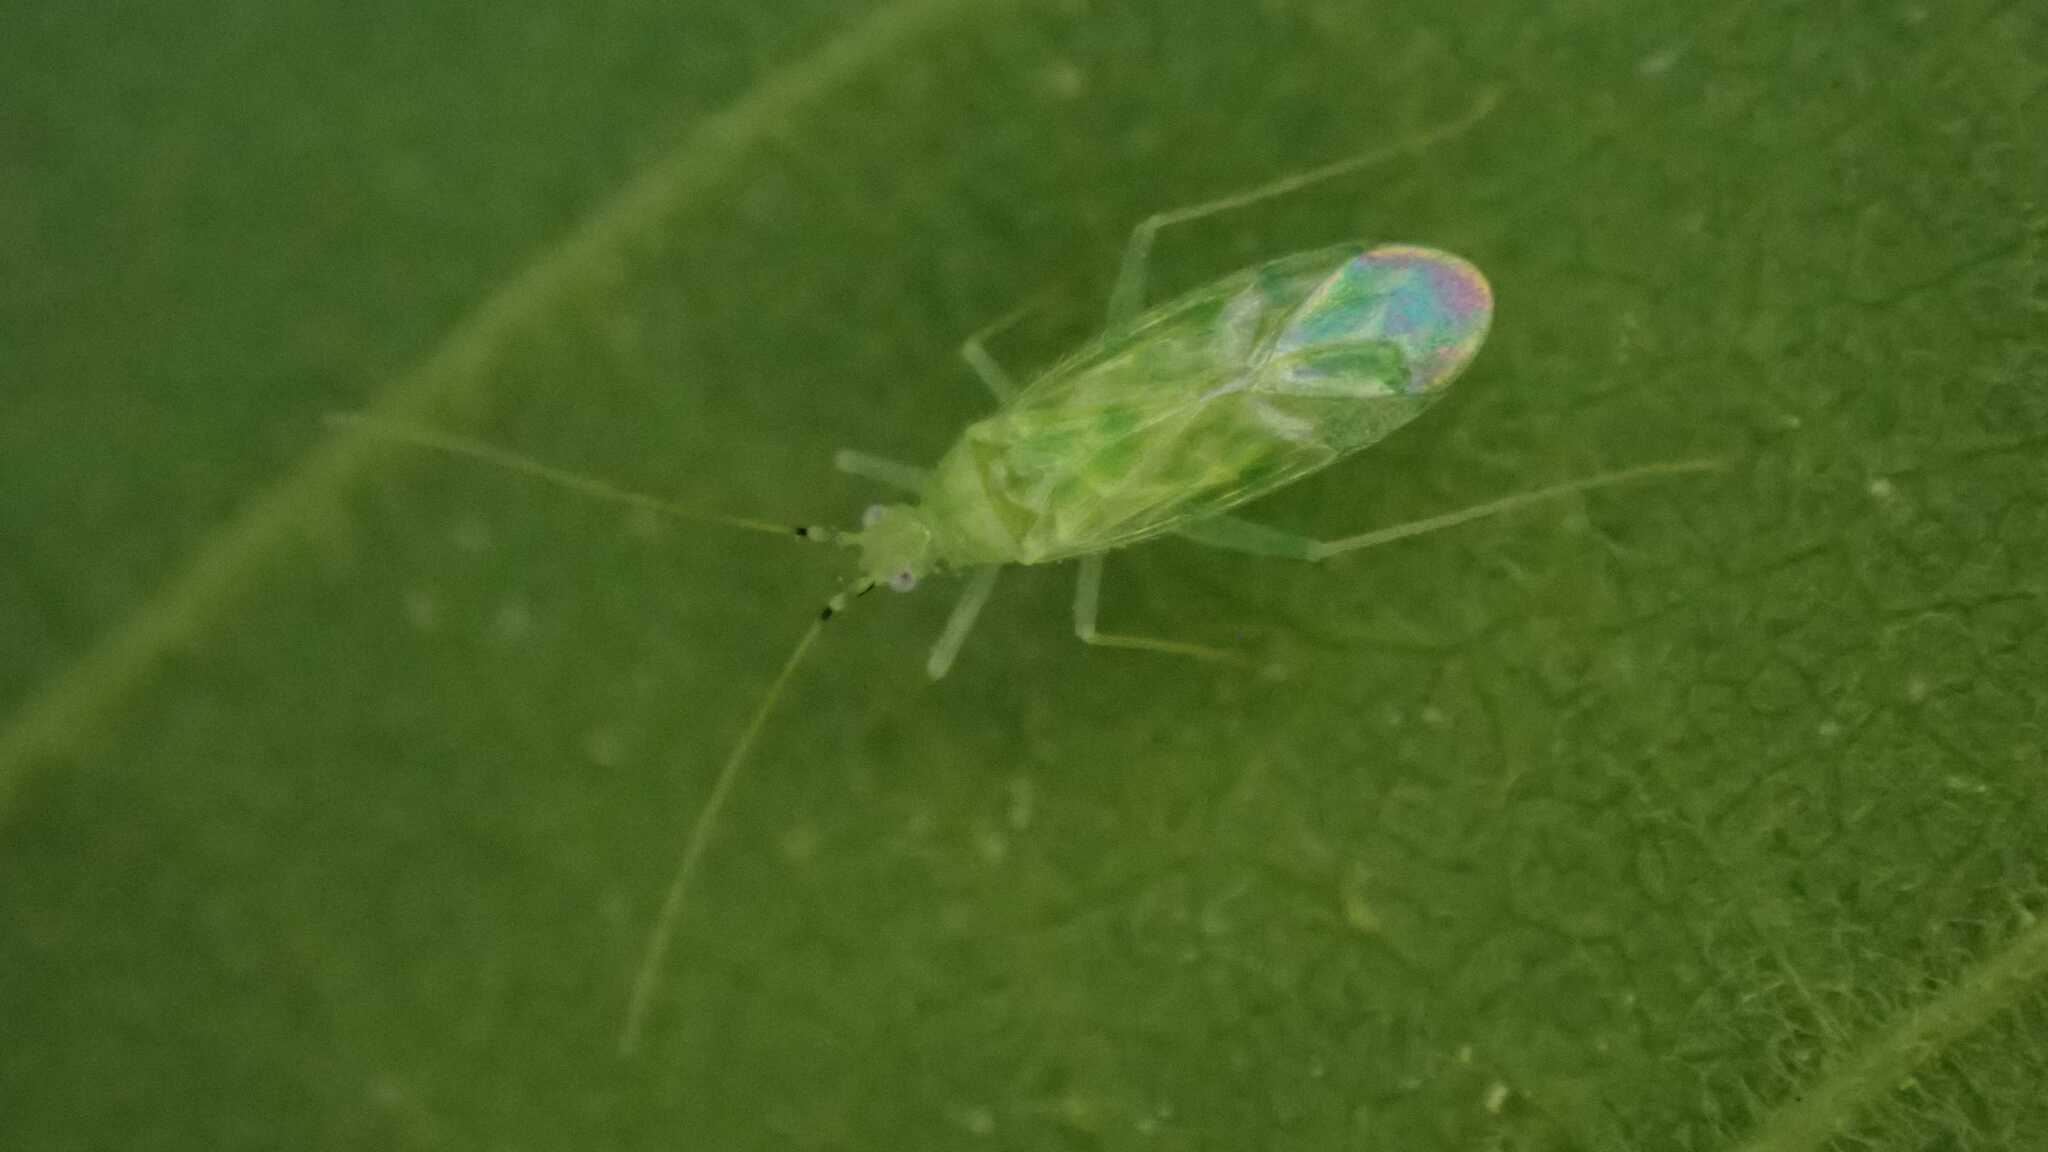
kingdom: Animalia
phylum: Arthropoda
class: Insecta
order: Hemiptera
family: Miridae
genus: Malacocoris
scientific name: Malacocoris chlorizans
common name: Plant bug
